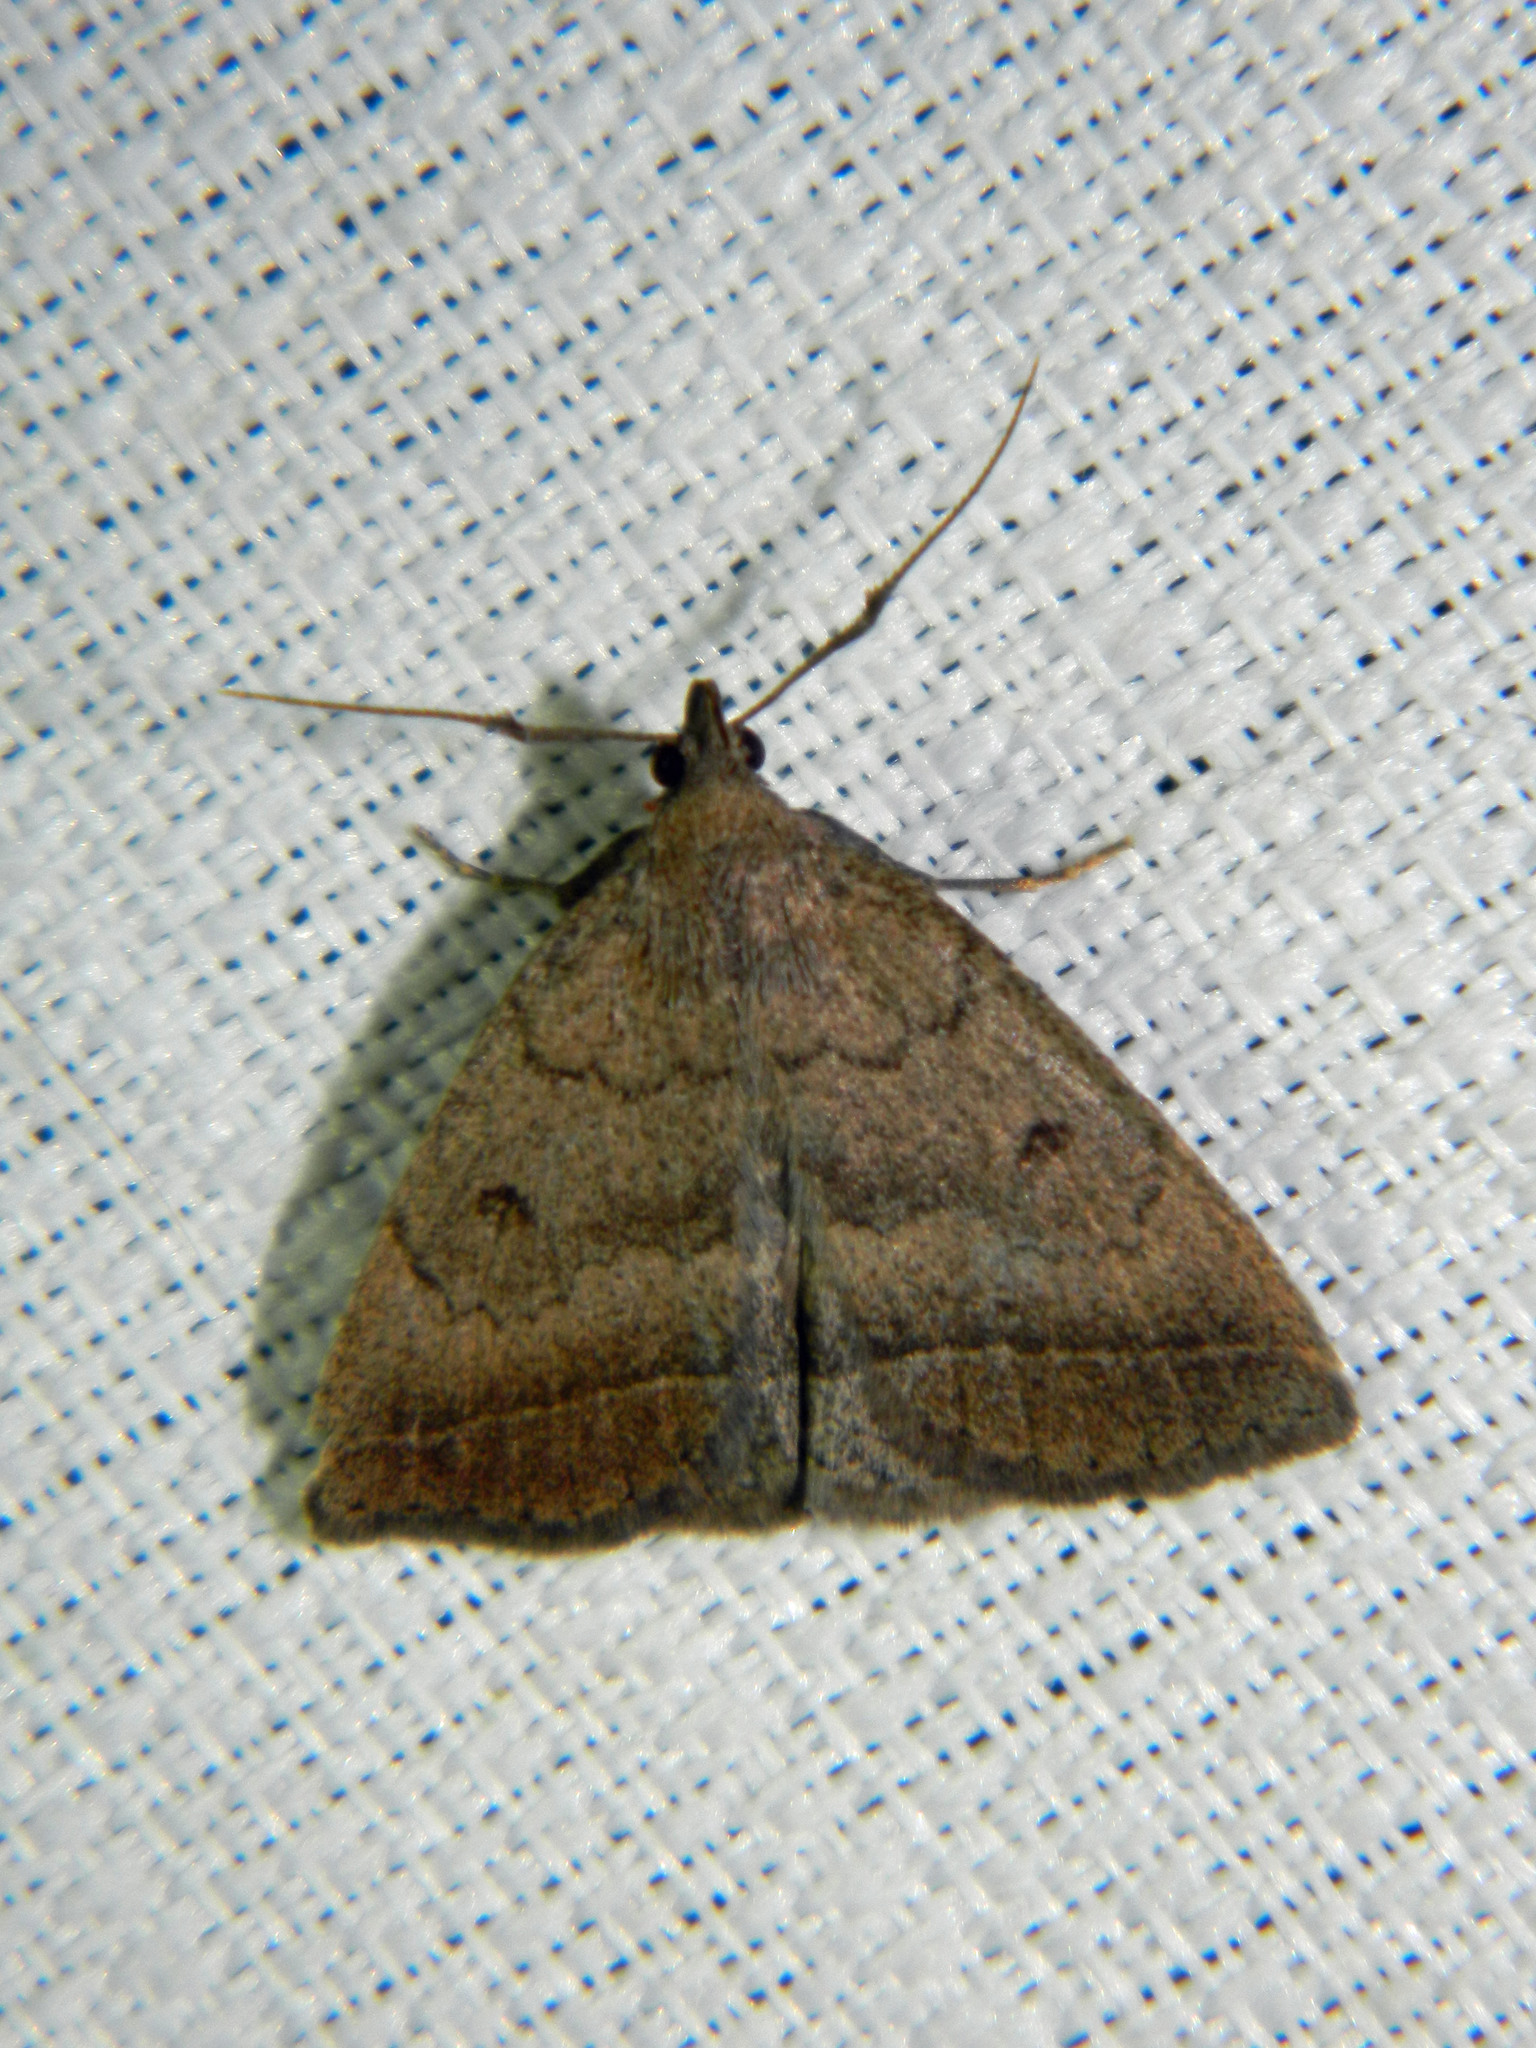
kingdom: Animalia
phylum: Arthropoda
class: Insecta
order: Lepidoptera
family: Erebidae
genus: Zanclognatha
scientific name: Zanclognatha jacchusalis
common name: Yellowish zanclognatha
